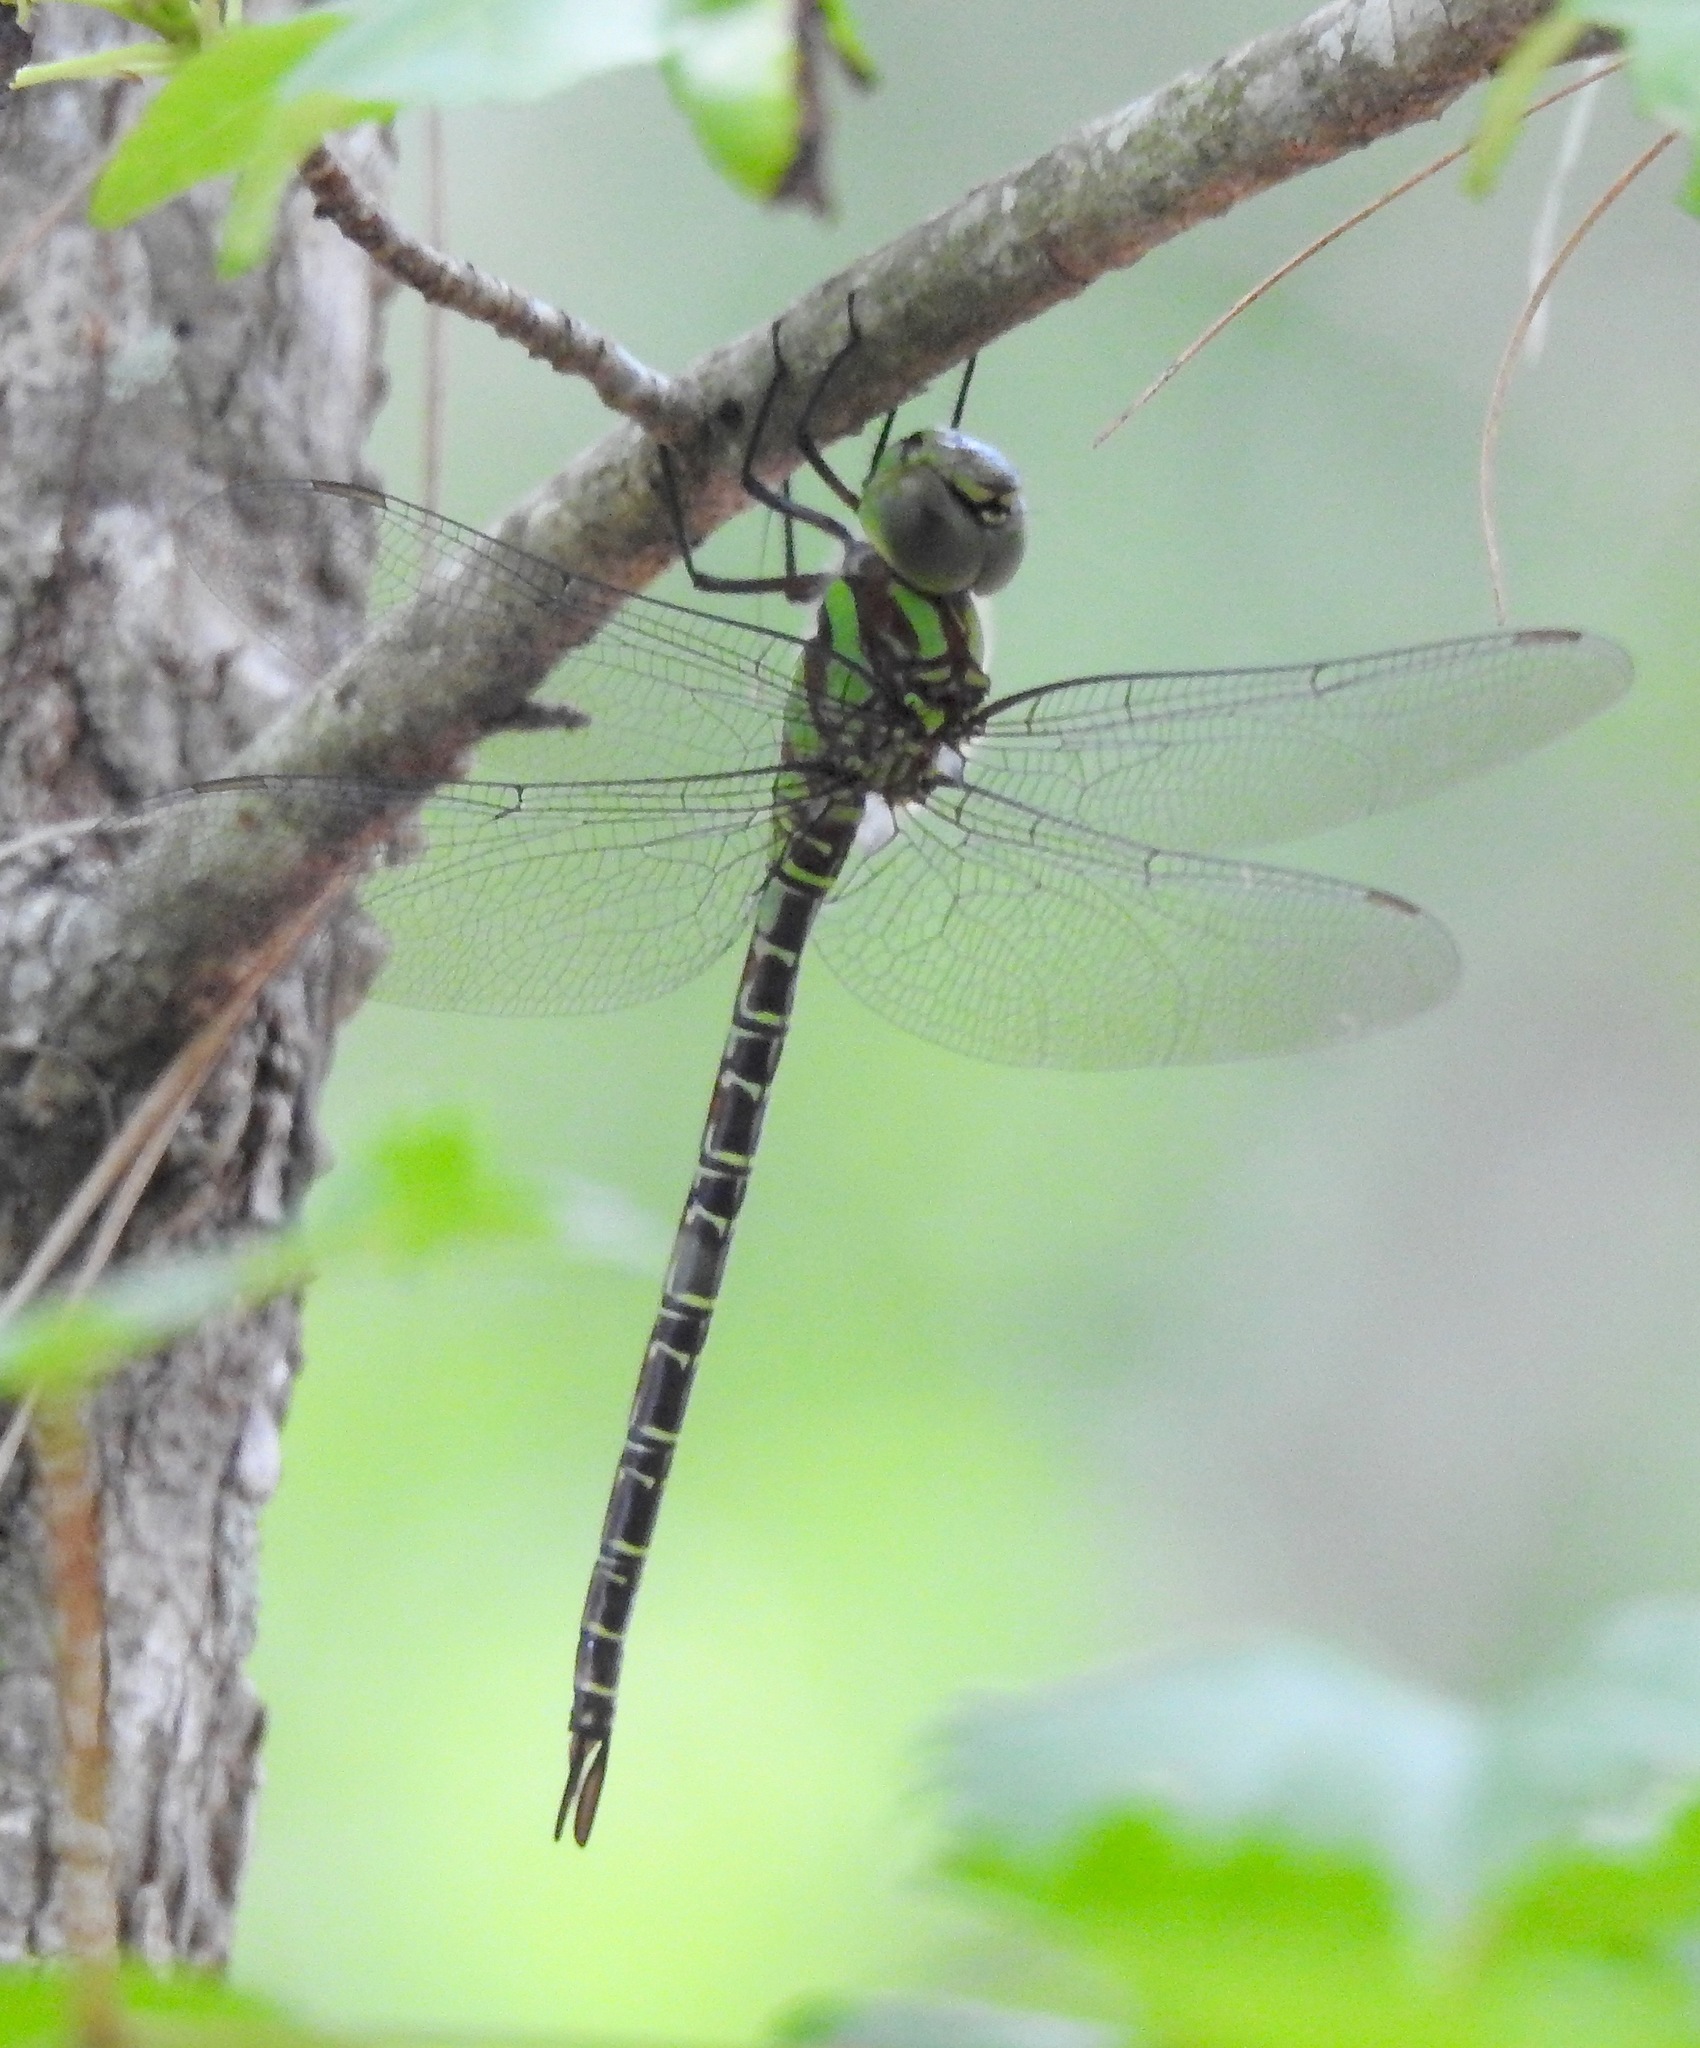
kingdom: Animalia
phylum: Arthropoda
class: Insecta
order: Odonata
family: Aeshnidae
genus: Coryphaeschna
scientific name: Coryphaeschna ingens
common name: Regal darner
